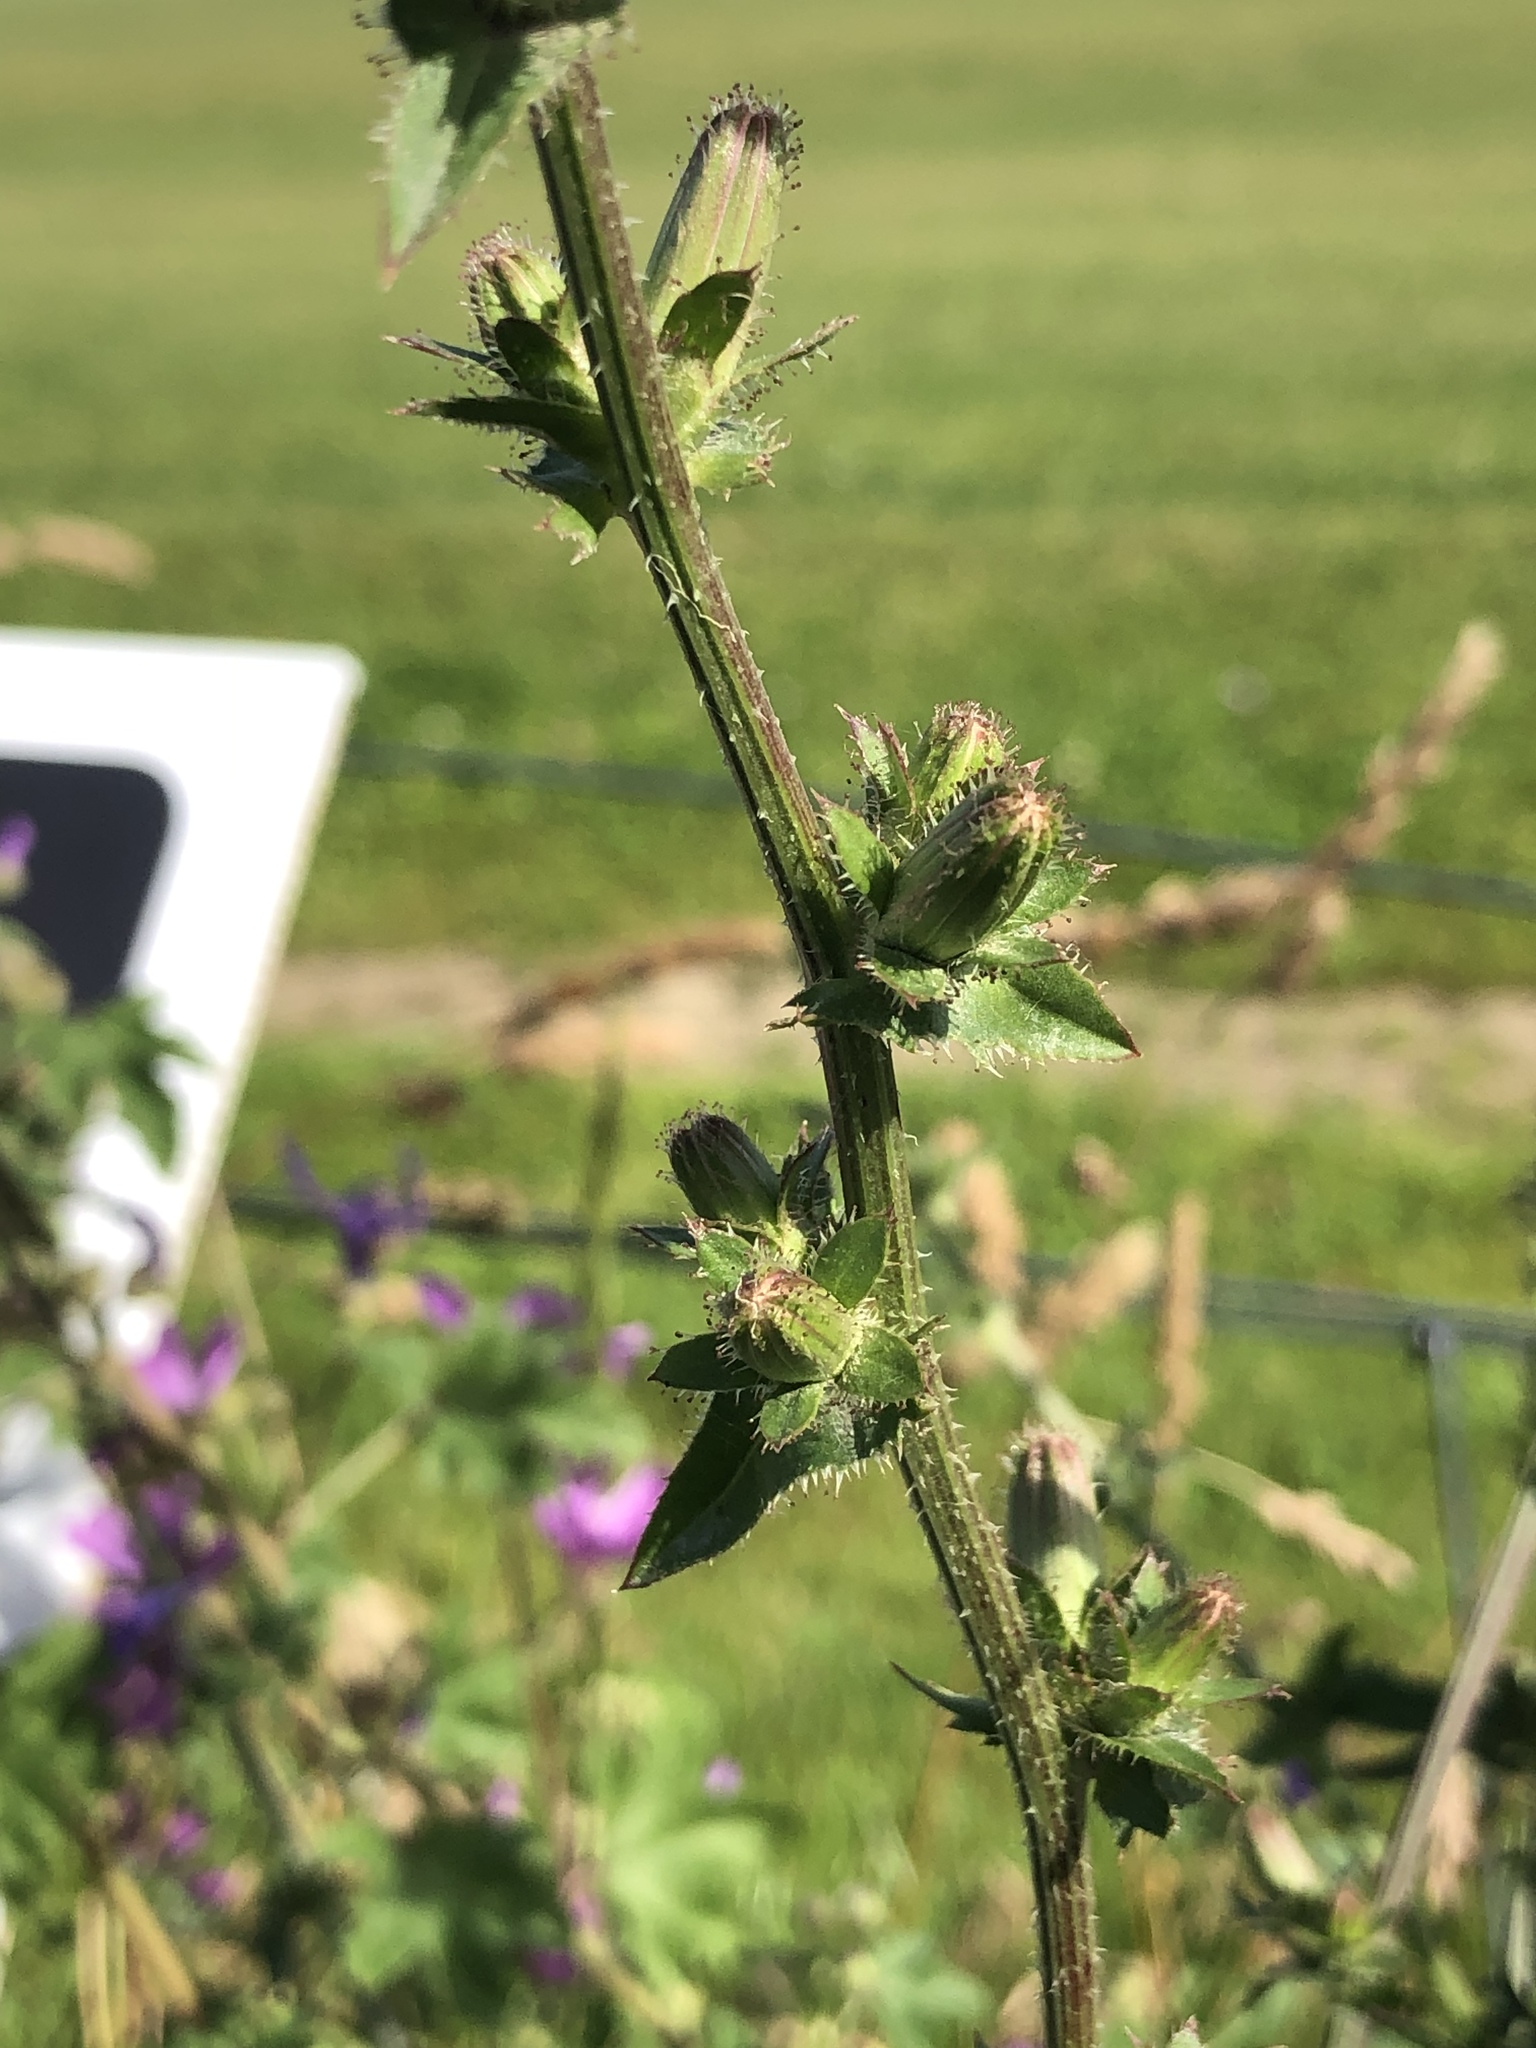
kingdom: Plantae
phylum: Tracheophyta
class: Magnoliopsida
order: Asterales
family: Asteraceae
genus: Cichorium
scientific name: Cichorium intybus
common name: Chicory
